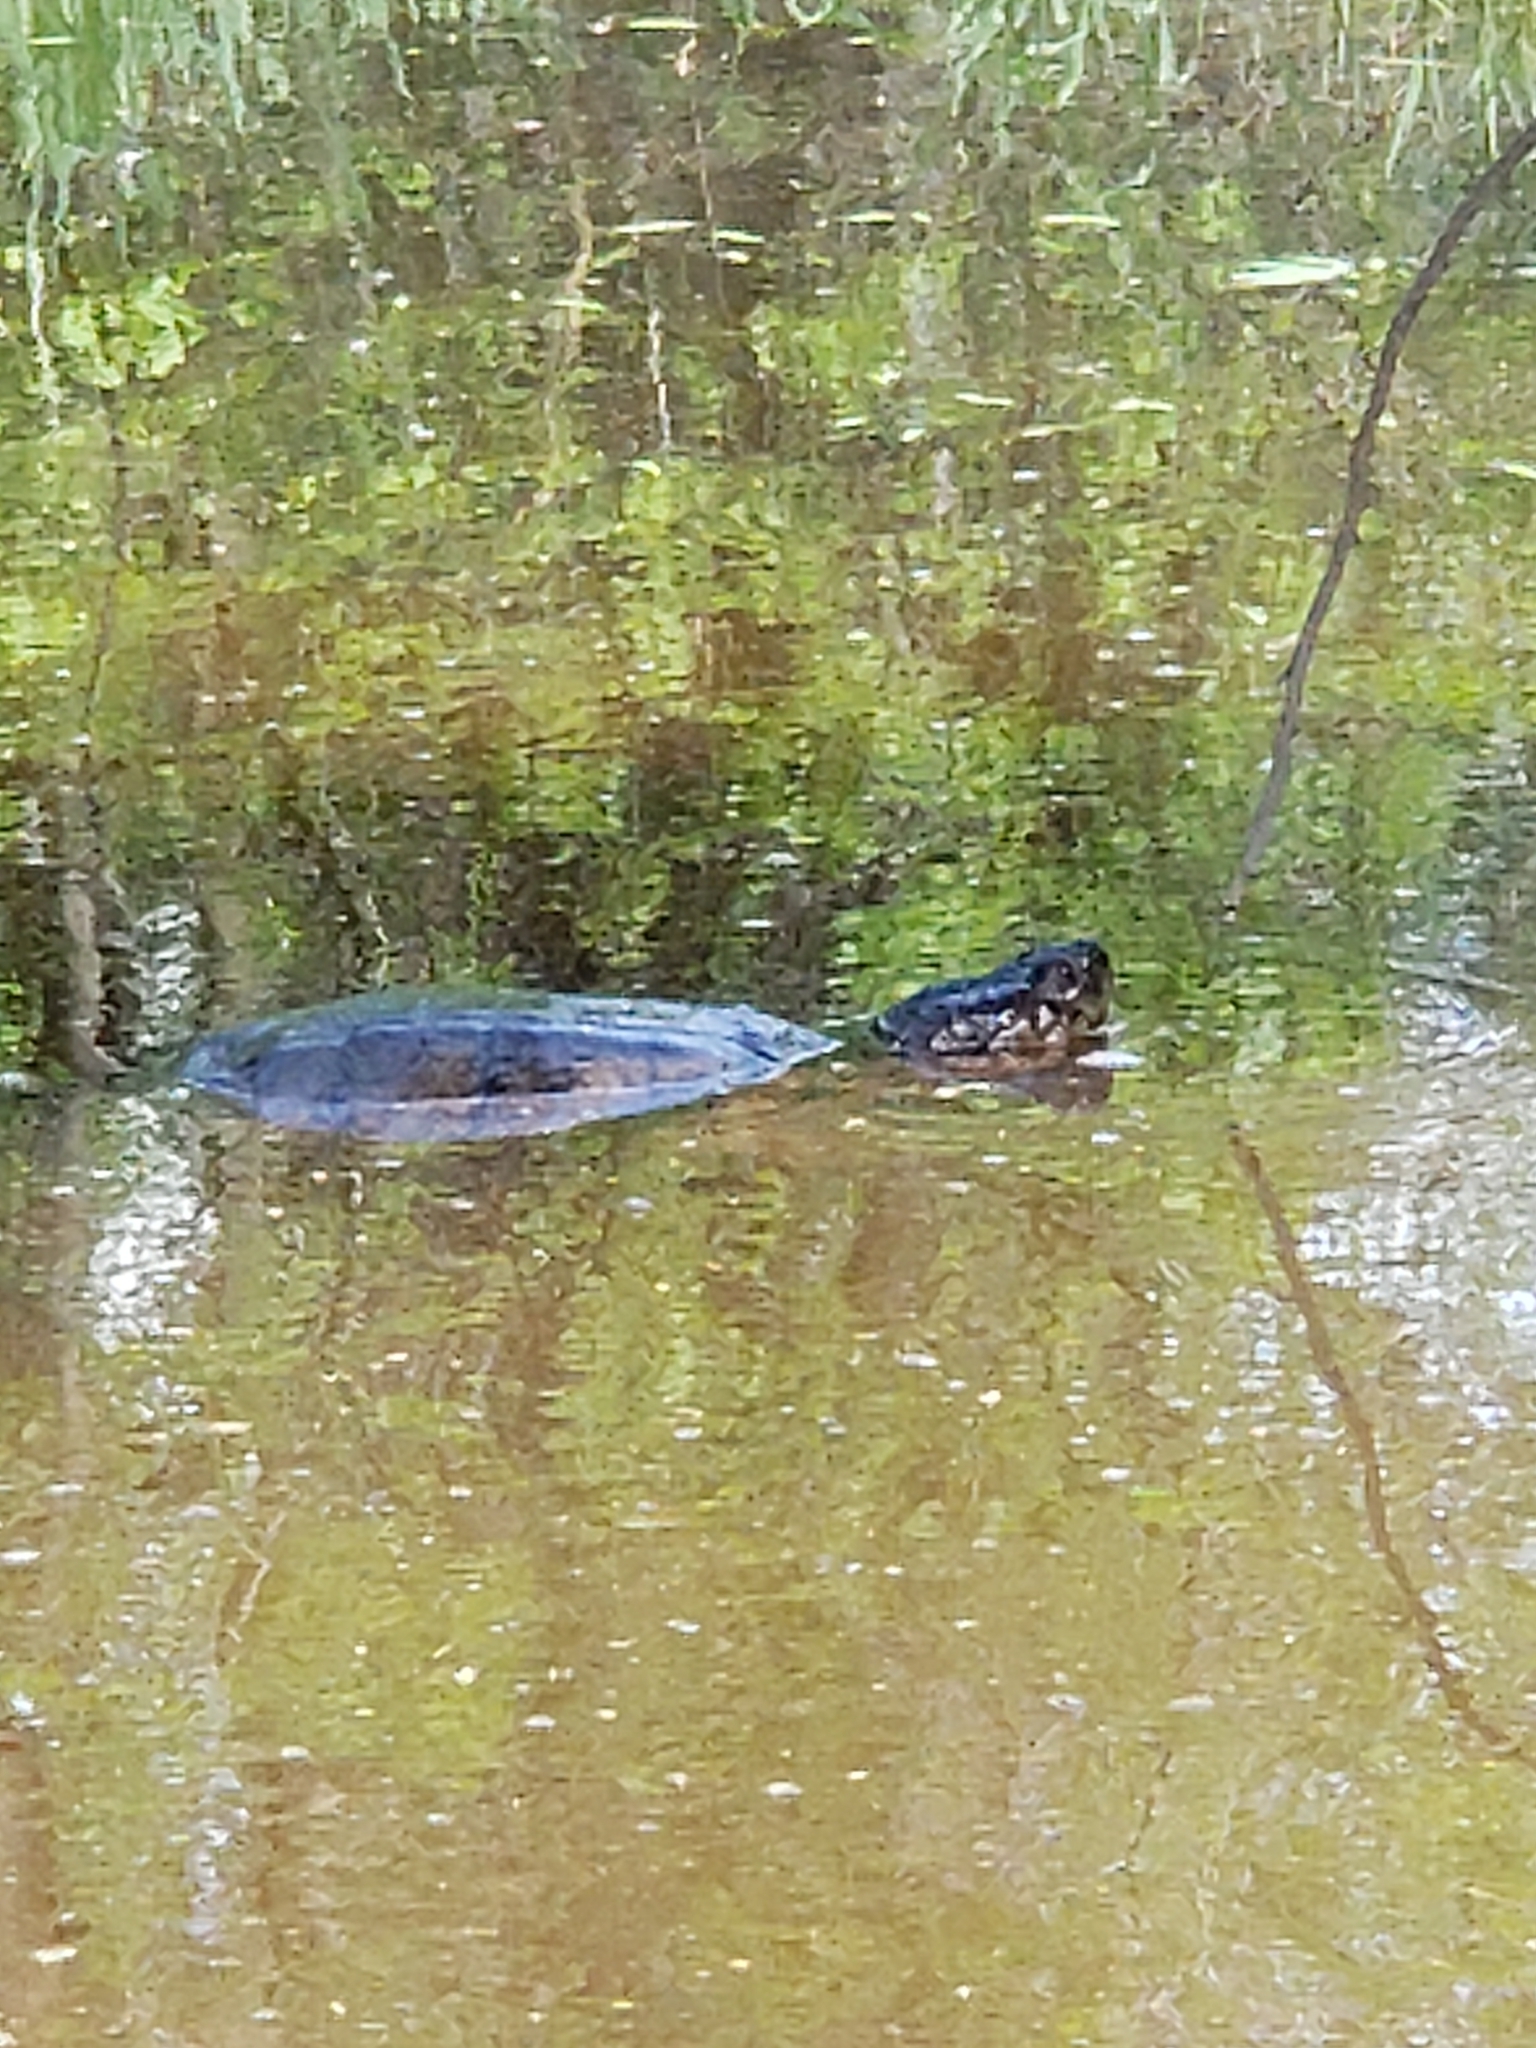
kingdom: Animalia
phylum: Chordata
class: Testudines
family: Chelydridae
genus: Chelydra
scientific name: Chelydra serpentina
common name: Common snapping turtle
